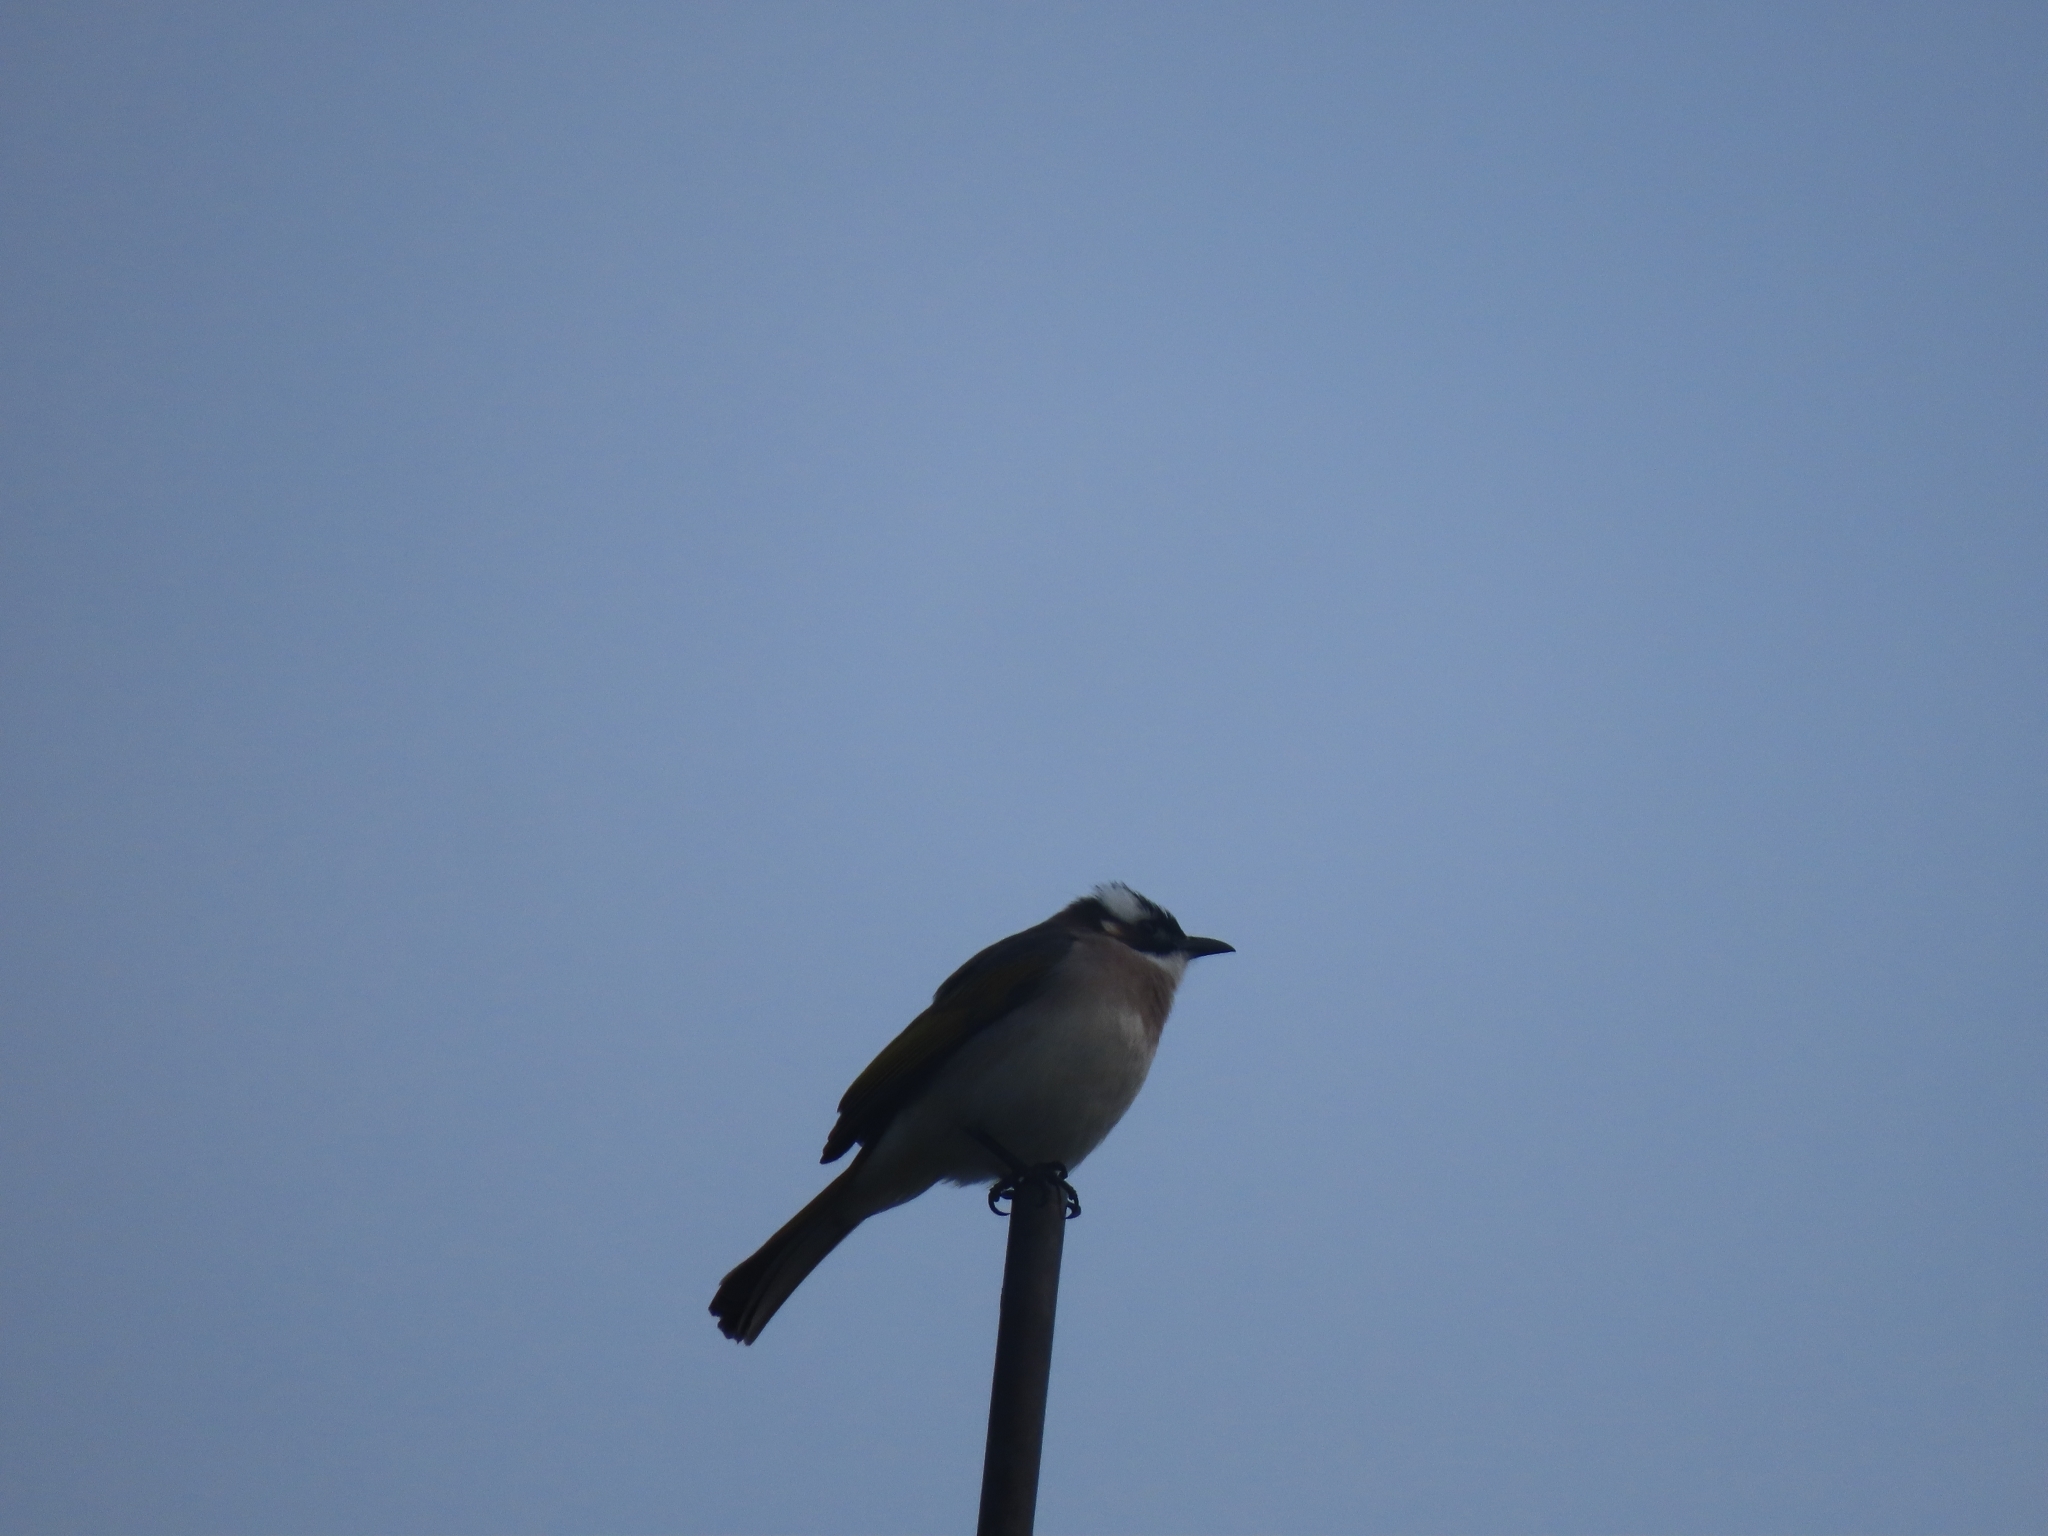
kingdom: Animalia
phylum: Chordata
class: Aves
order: Passeriformes
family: Pycnonotidae
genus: Pycnonotus
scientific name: Pycnonotus sinensis
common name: Light-vented bulbul
